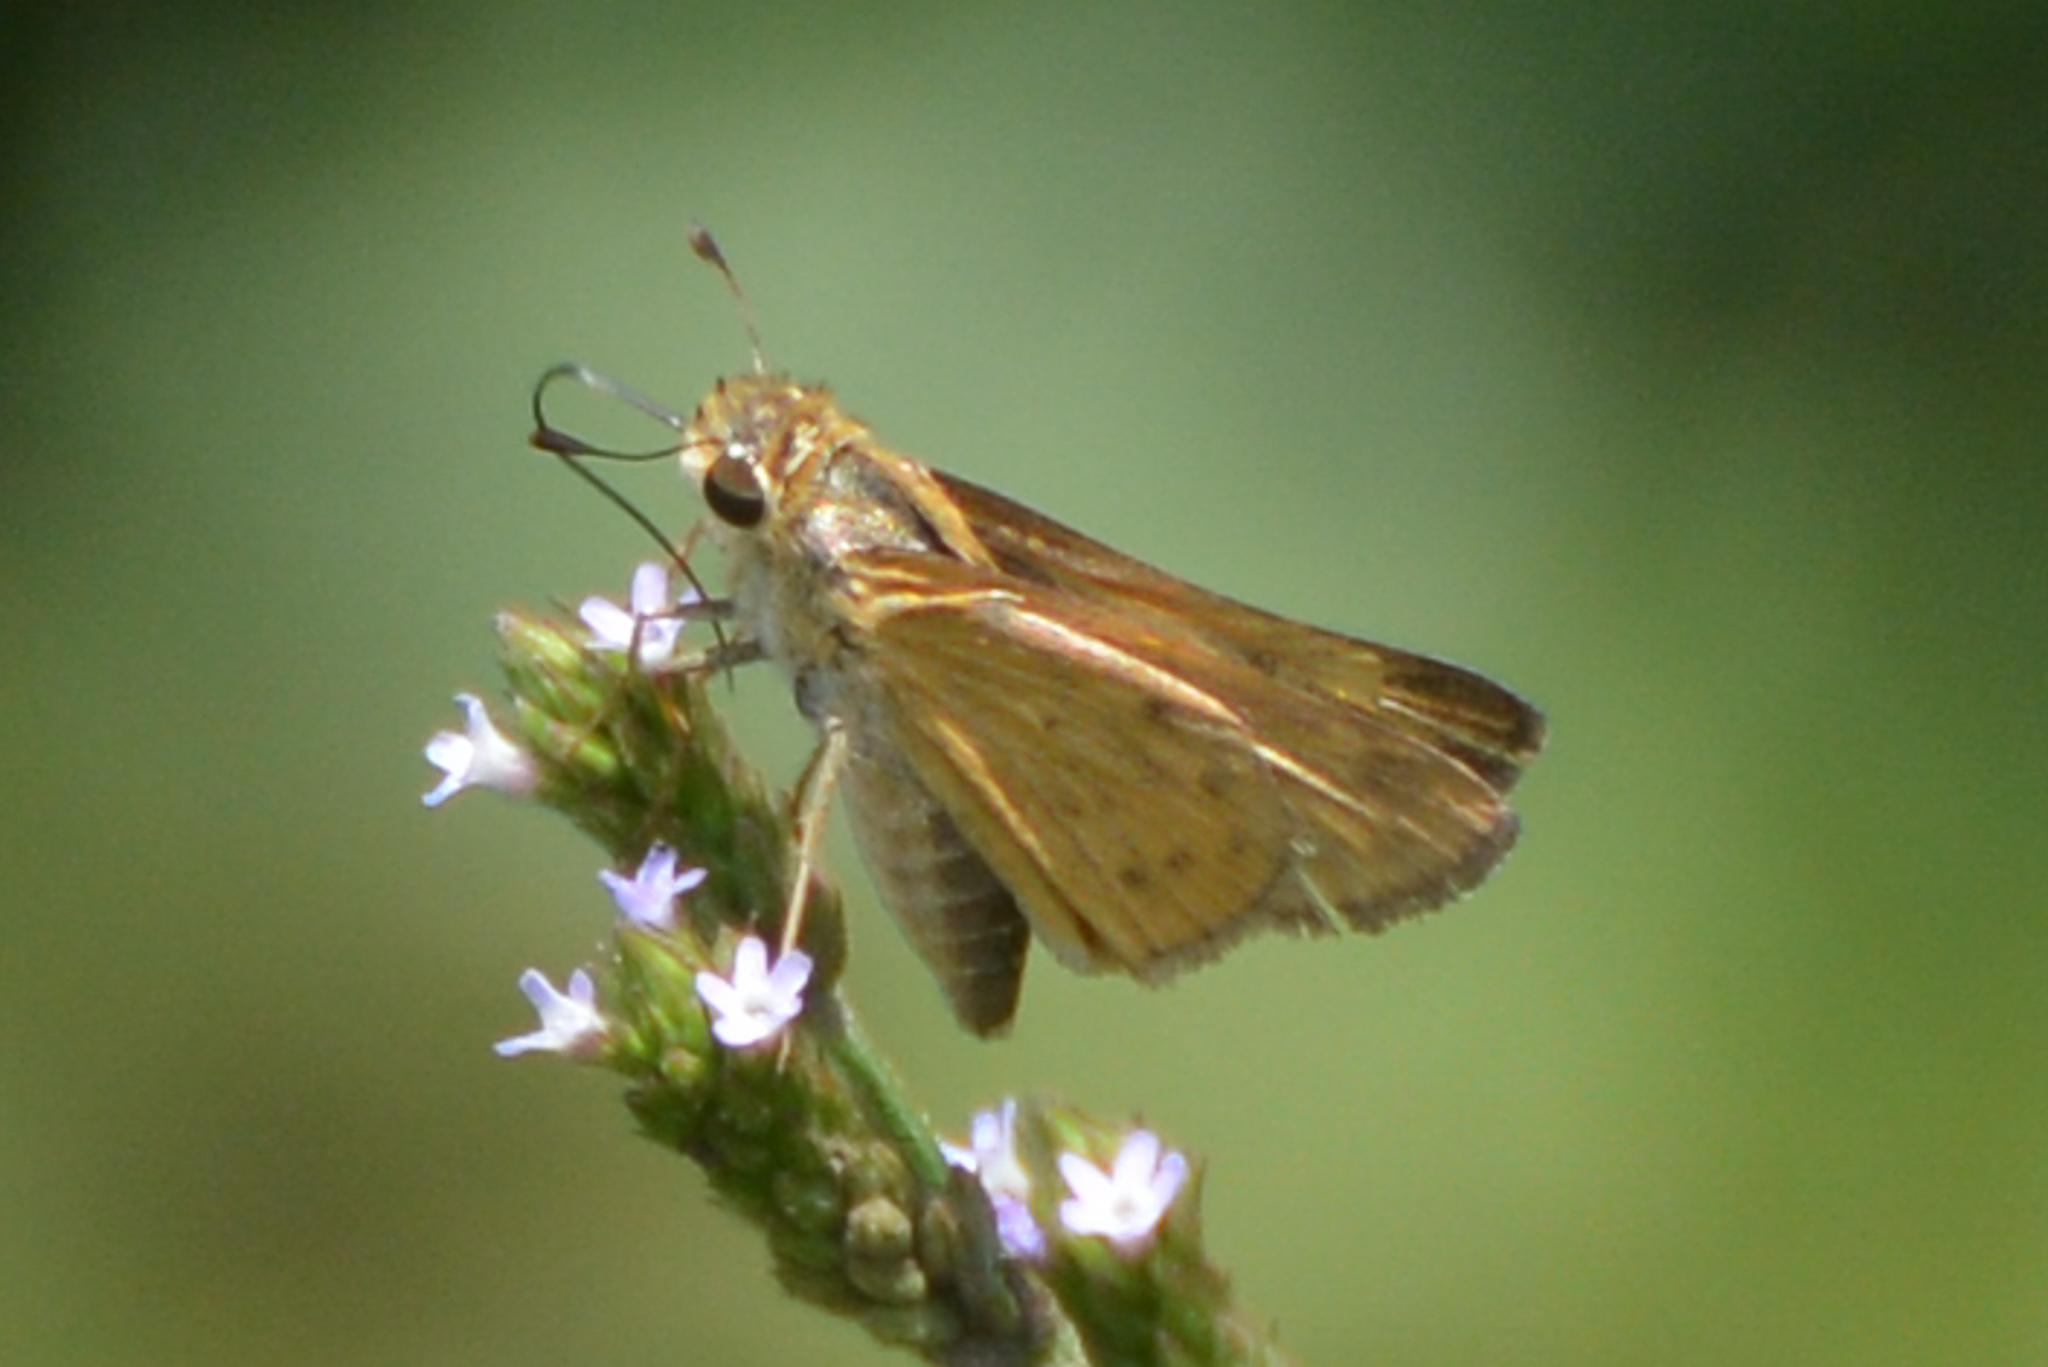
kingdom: Animalia
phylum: Arthropoda
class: Insecta
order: Lepidoptera
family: Hesperiidae
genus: Hylephila
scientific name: Hylephila phyleus
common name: Fiery skipper
